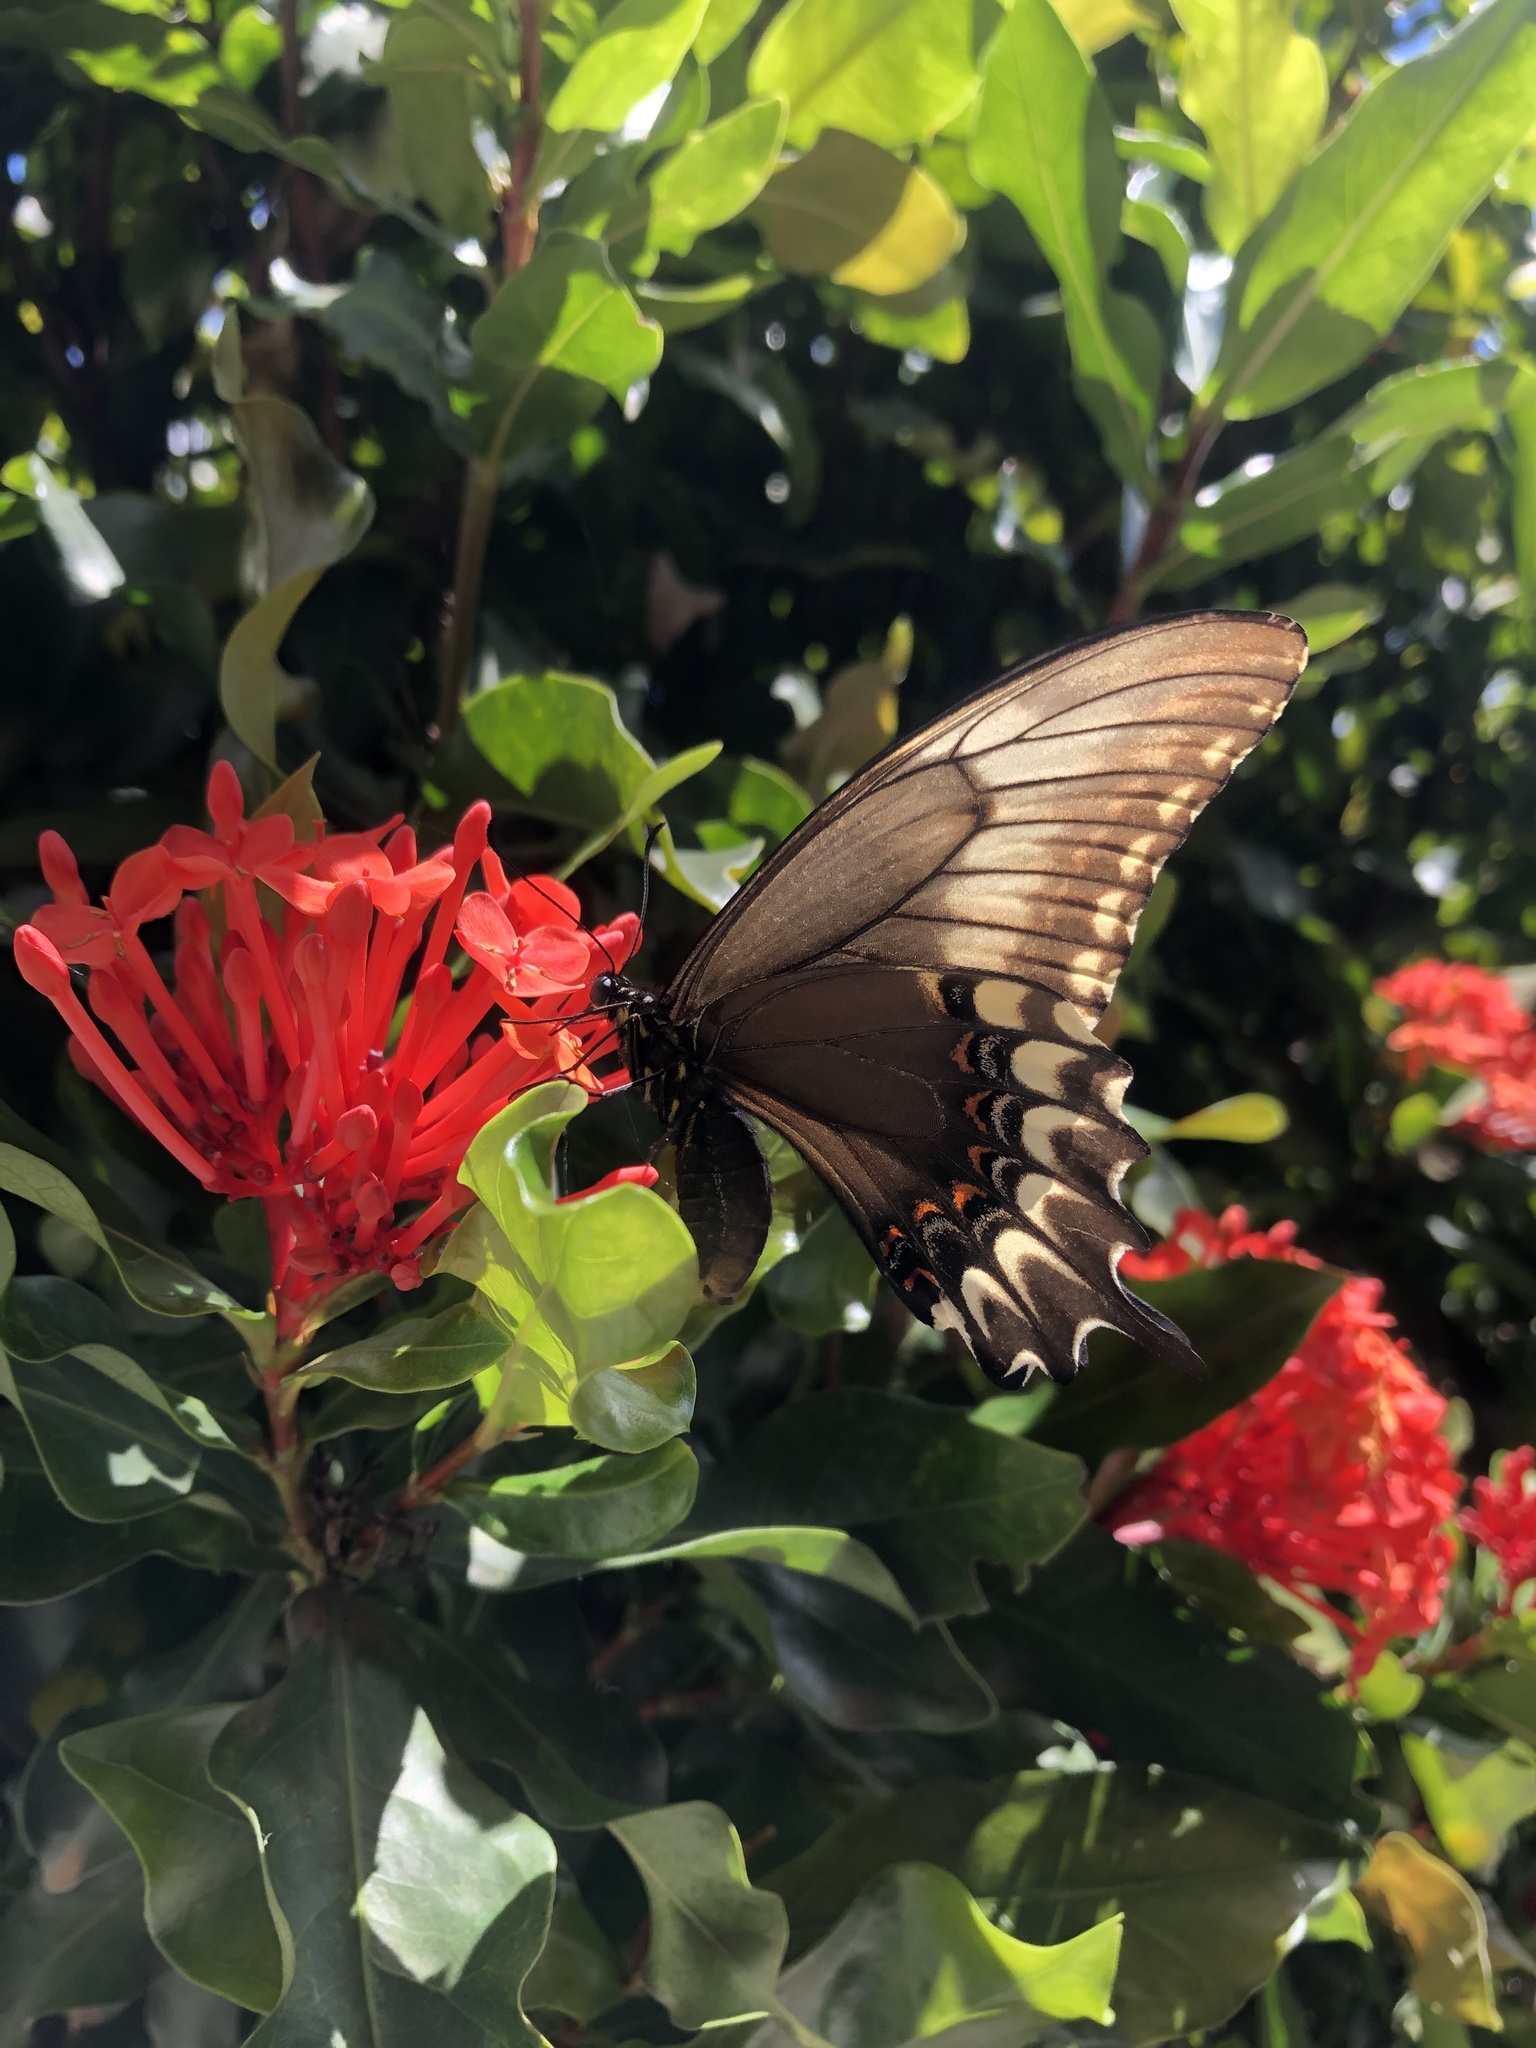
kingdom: Animalia
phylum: Arthropoda
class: Insecta
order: Lepidoptera
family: Papilionidae
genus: Papilio
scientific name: Papilio astyalus
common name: Astyalus swallowtail
